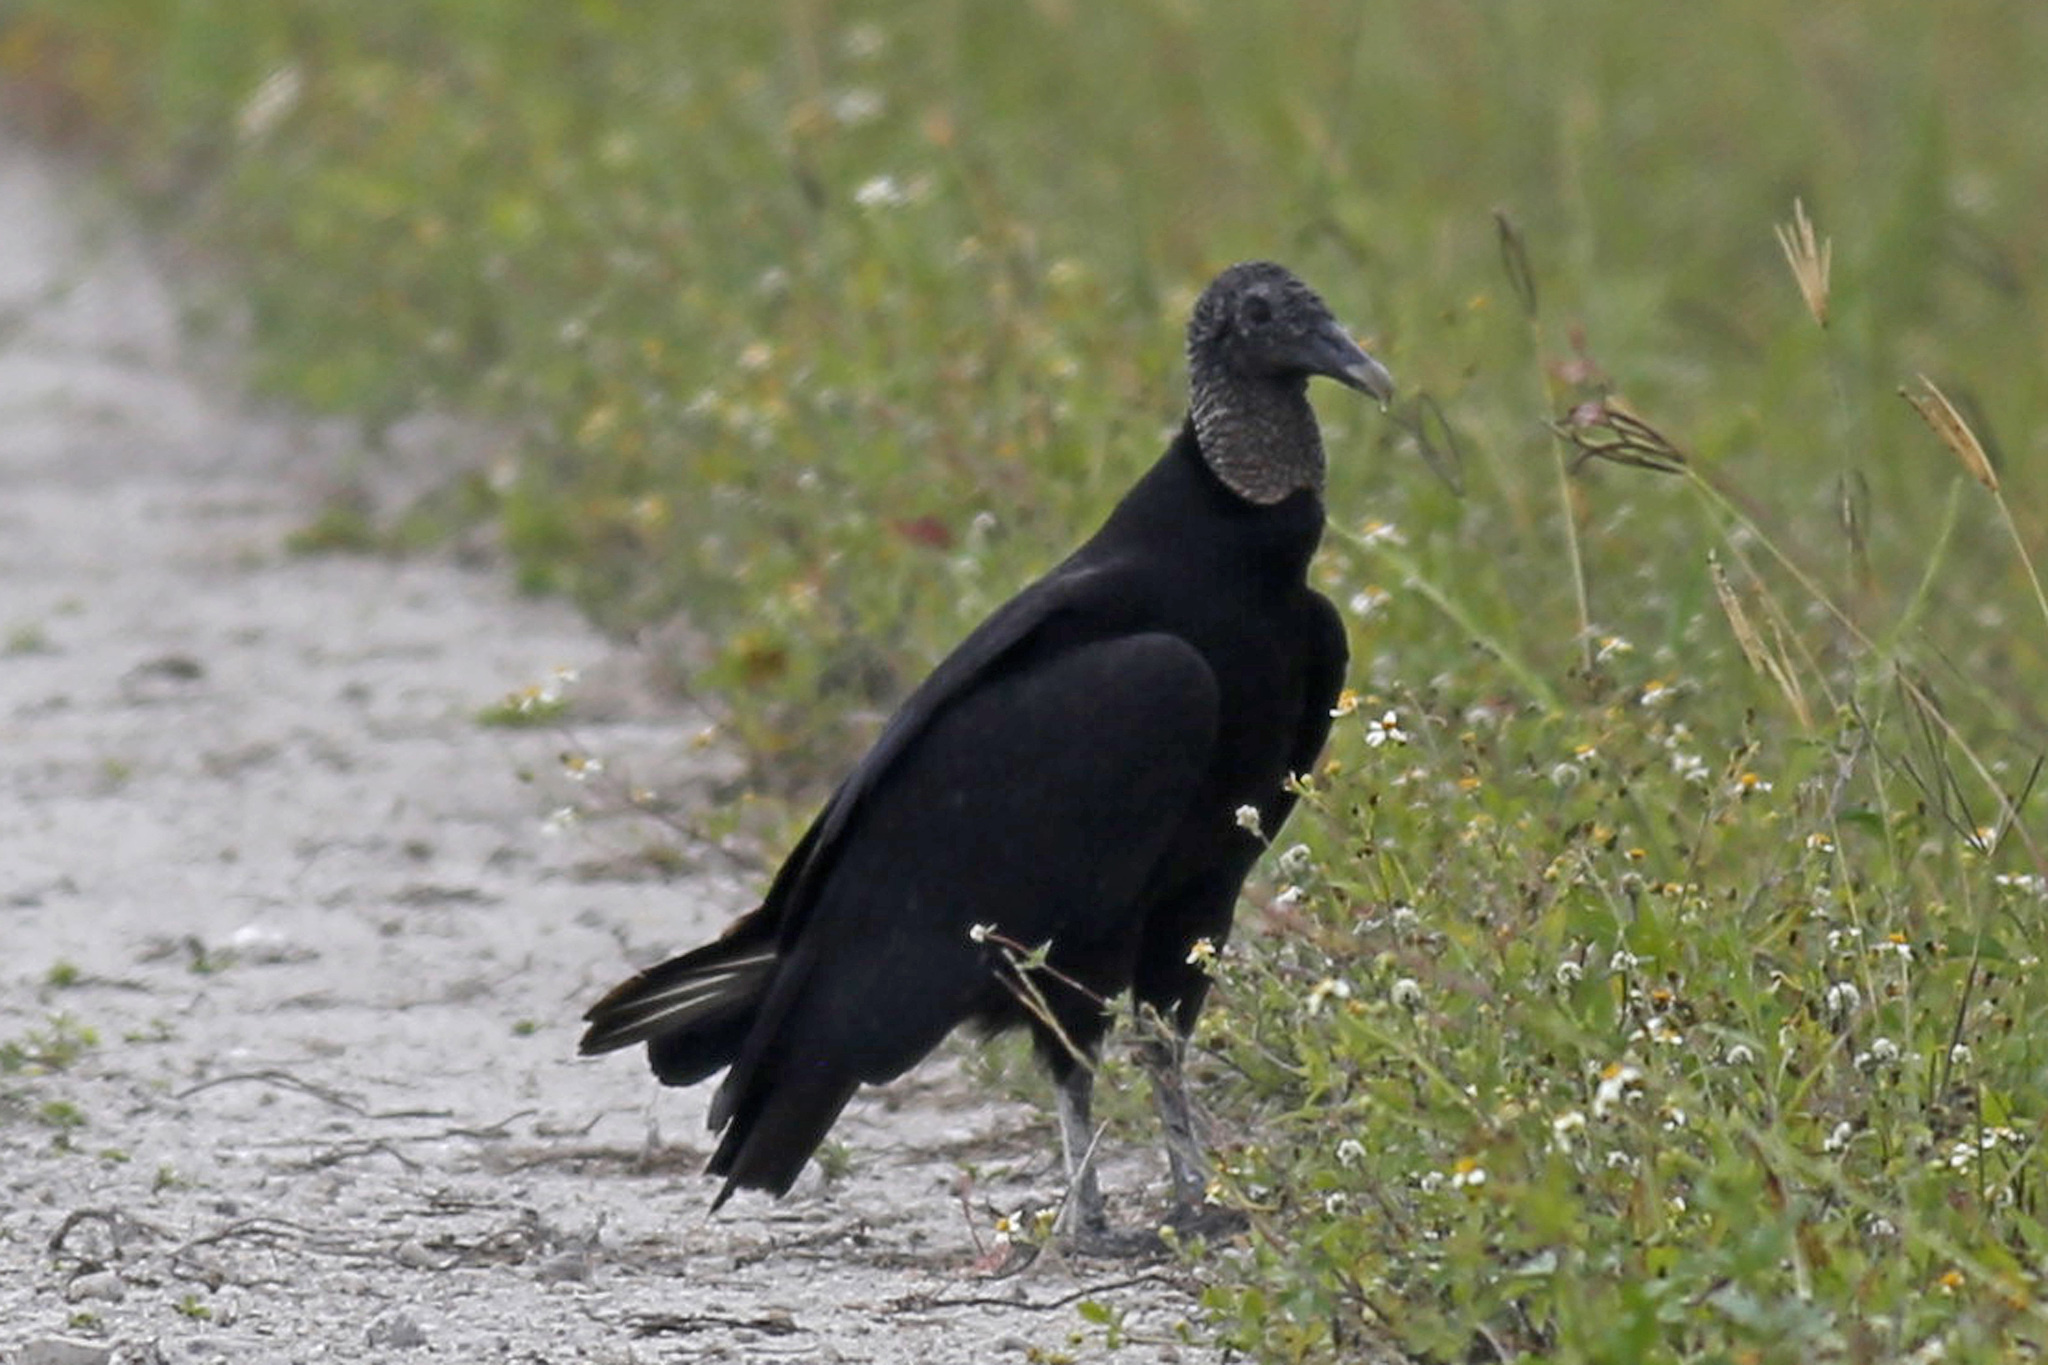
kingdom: Animalia
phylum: Chordata
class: Aves
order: Accipitriformes
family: Cathartidae
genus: Coragyps
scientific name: Coragyps atratus
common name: Black vulture
